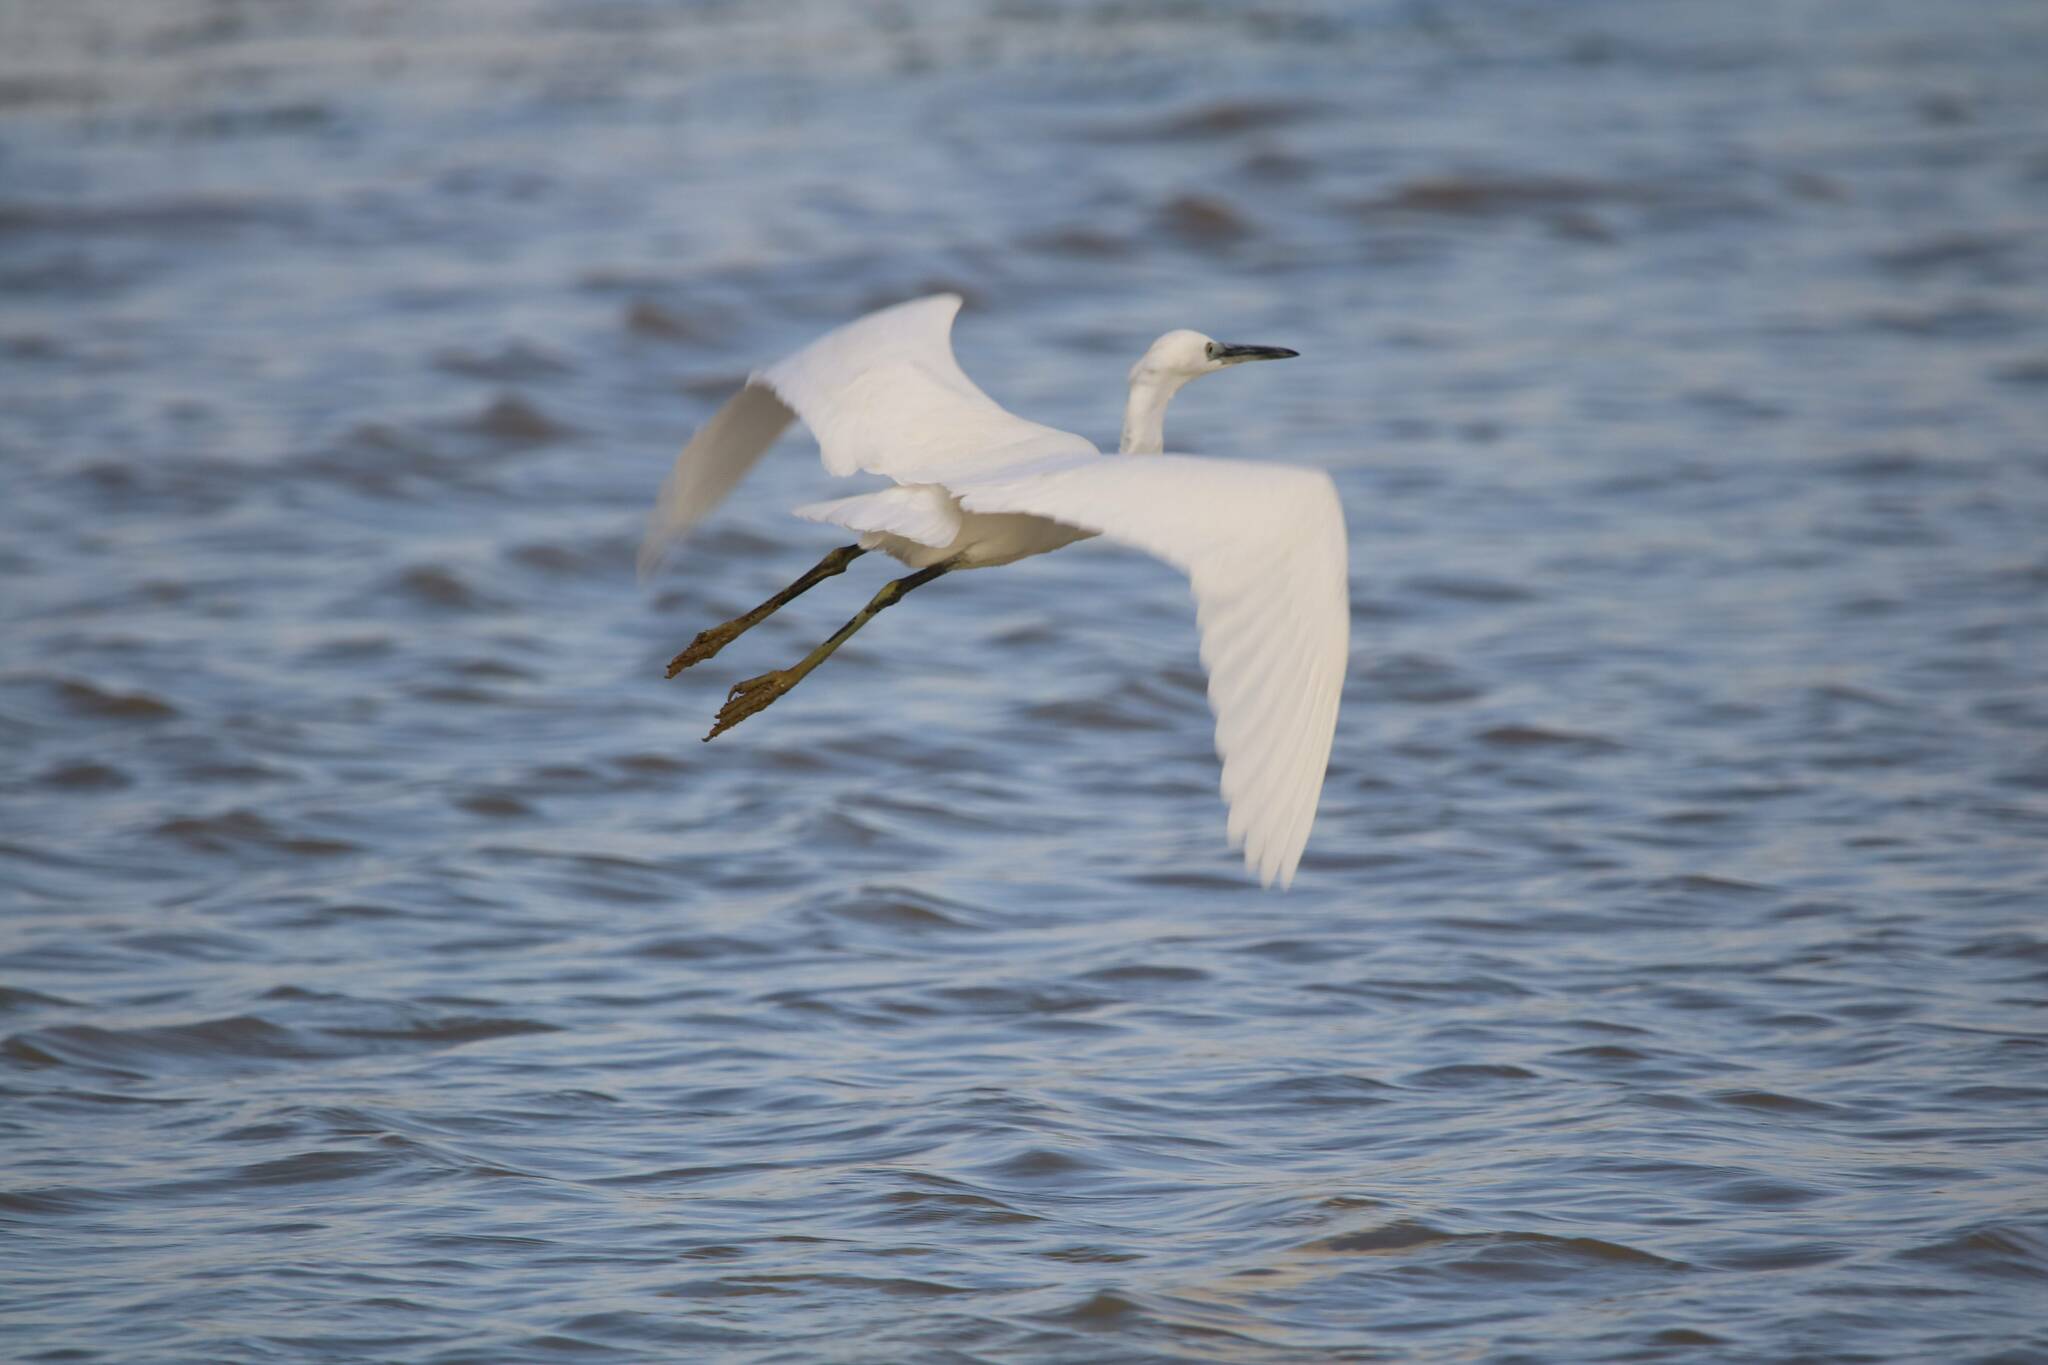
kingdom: Animalia
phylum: Chordata
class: Aves
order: Pelecaniformes
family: Ardeidae
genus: Egretta
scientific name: Egretta garzetta
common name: Little egret
